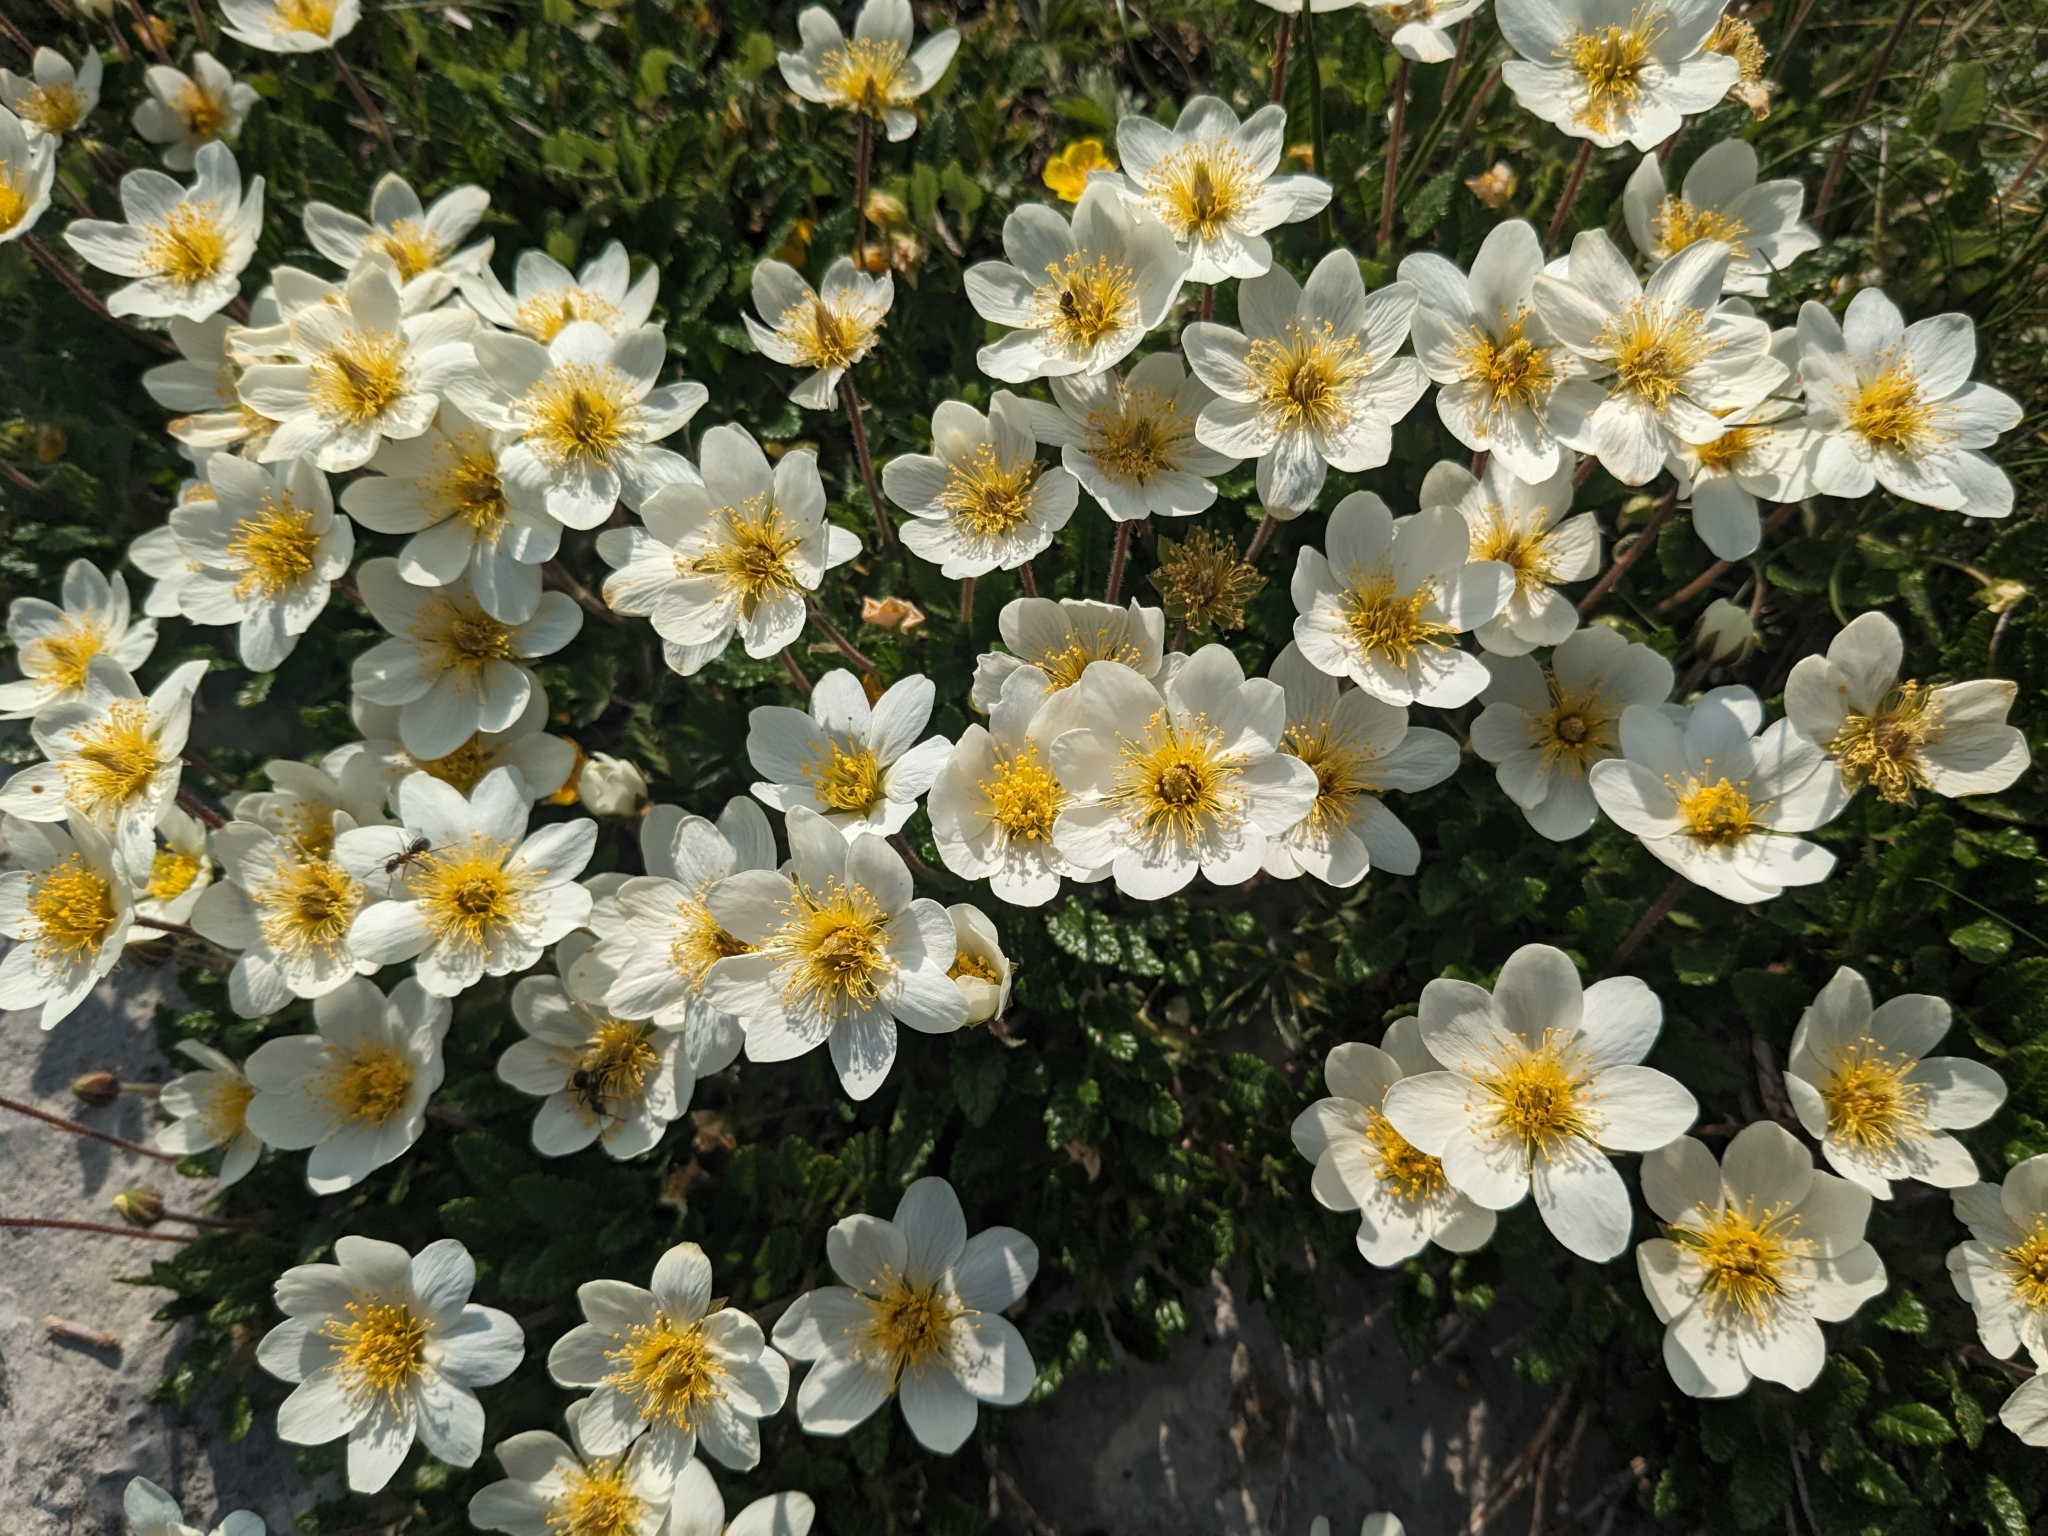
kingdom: Plantae
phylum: Tracheophyta
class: Magnoliopsida
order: Rosales
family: Rosaceae
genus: Dryas
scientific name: Dryas octopetala
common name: Eight-petal mountain-avens
